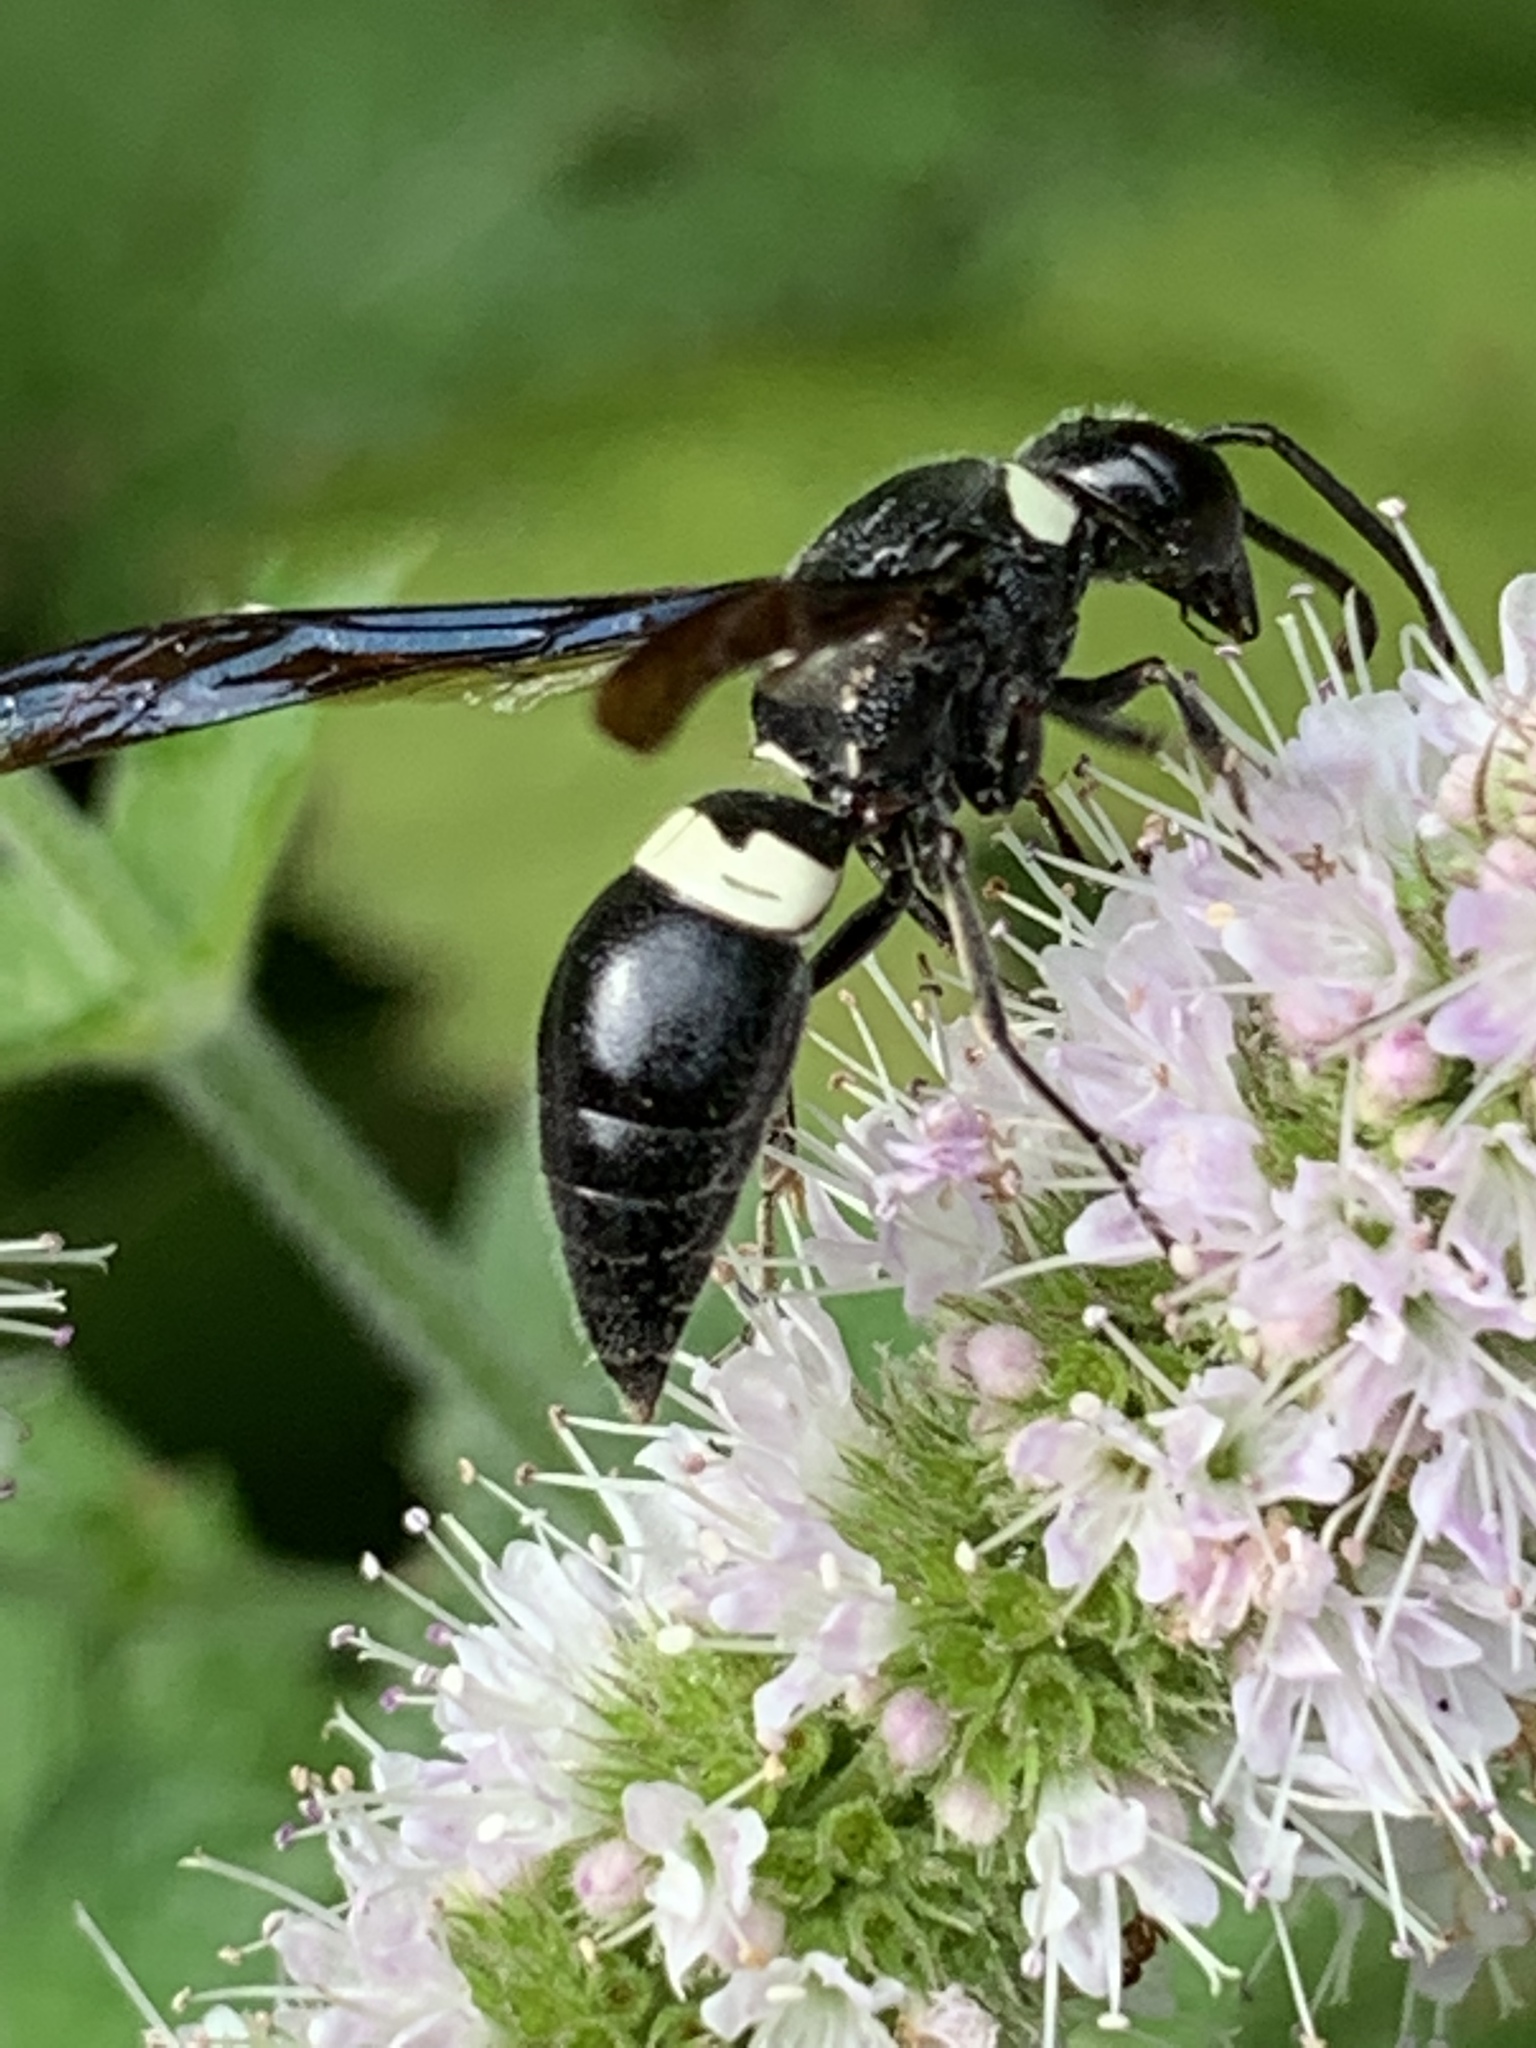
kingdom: Animalia
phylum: Arthropoda
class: Insecta
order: Hymenoptera
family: Eumenidae
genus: Monobia
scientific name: Monobia quadridens
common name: Four-toothed mason wasp
